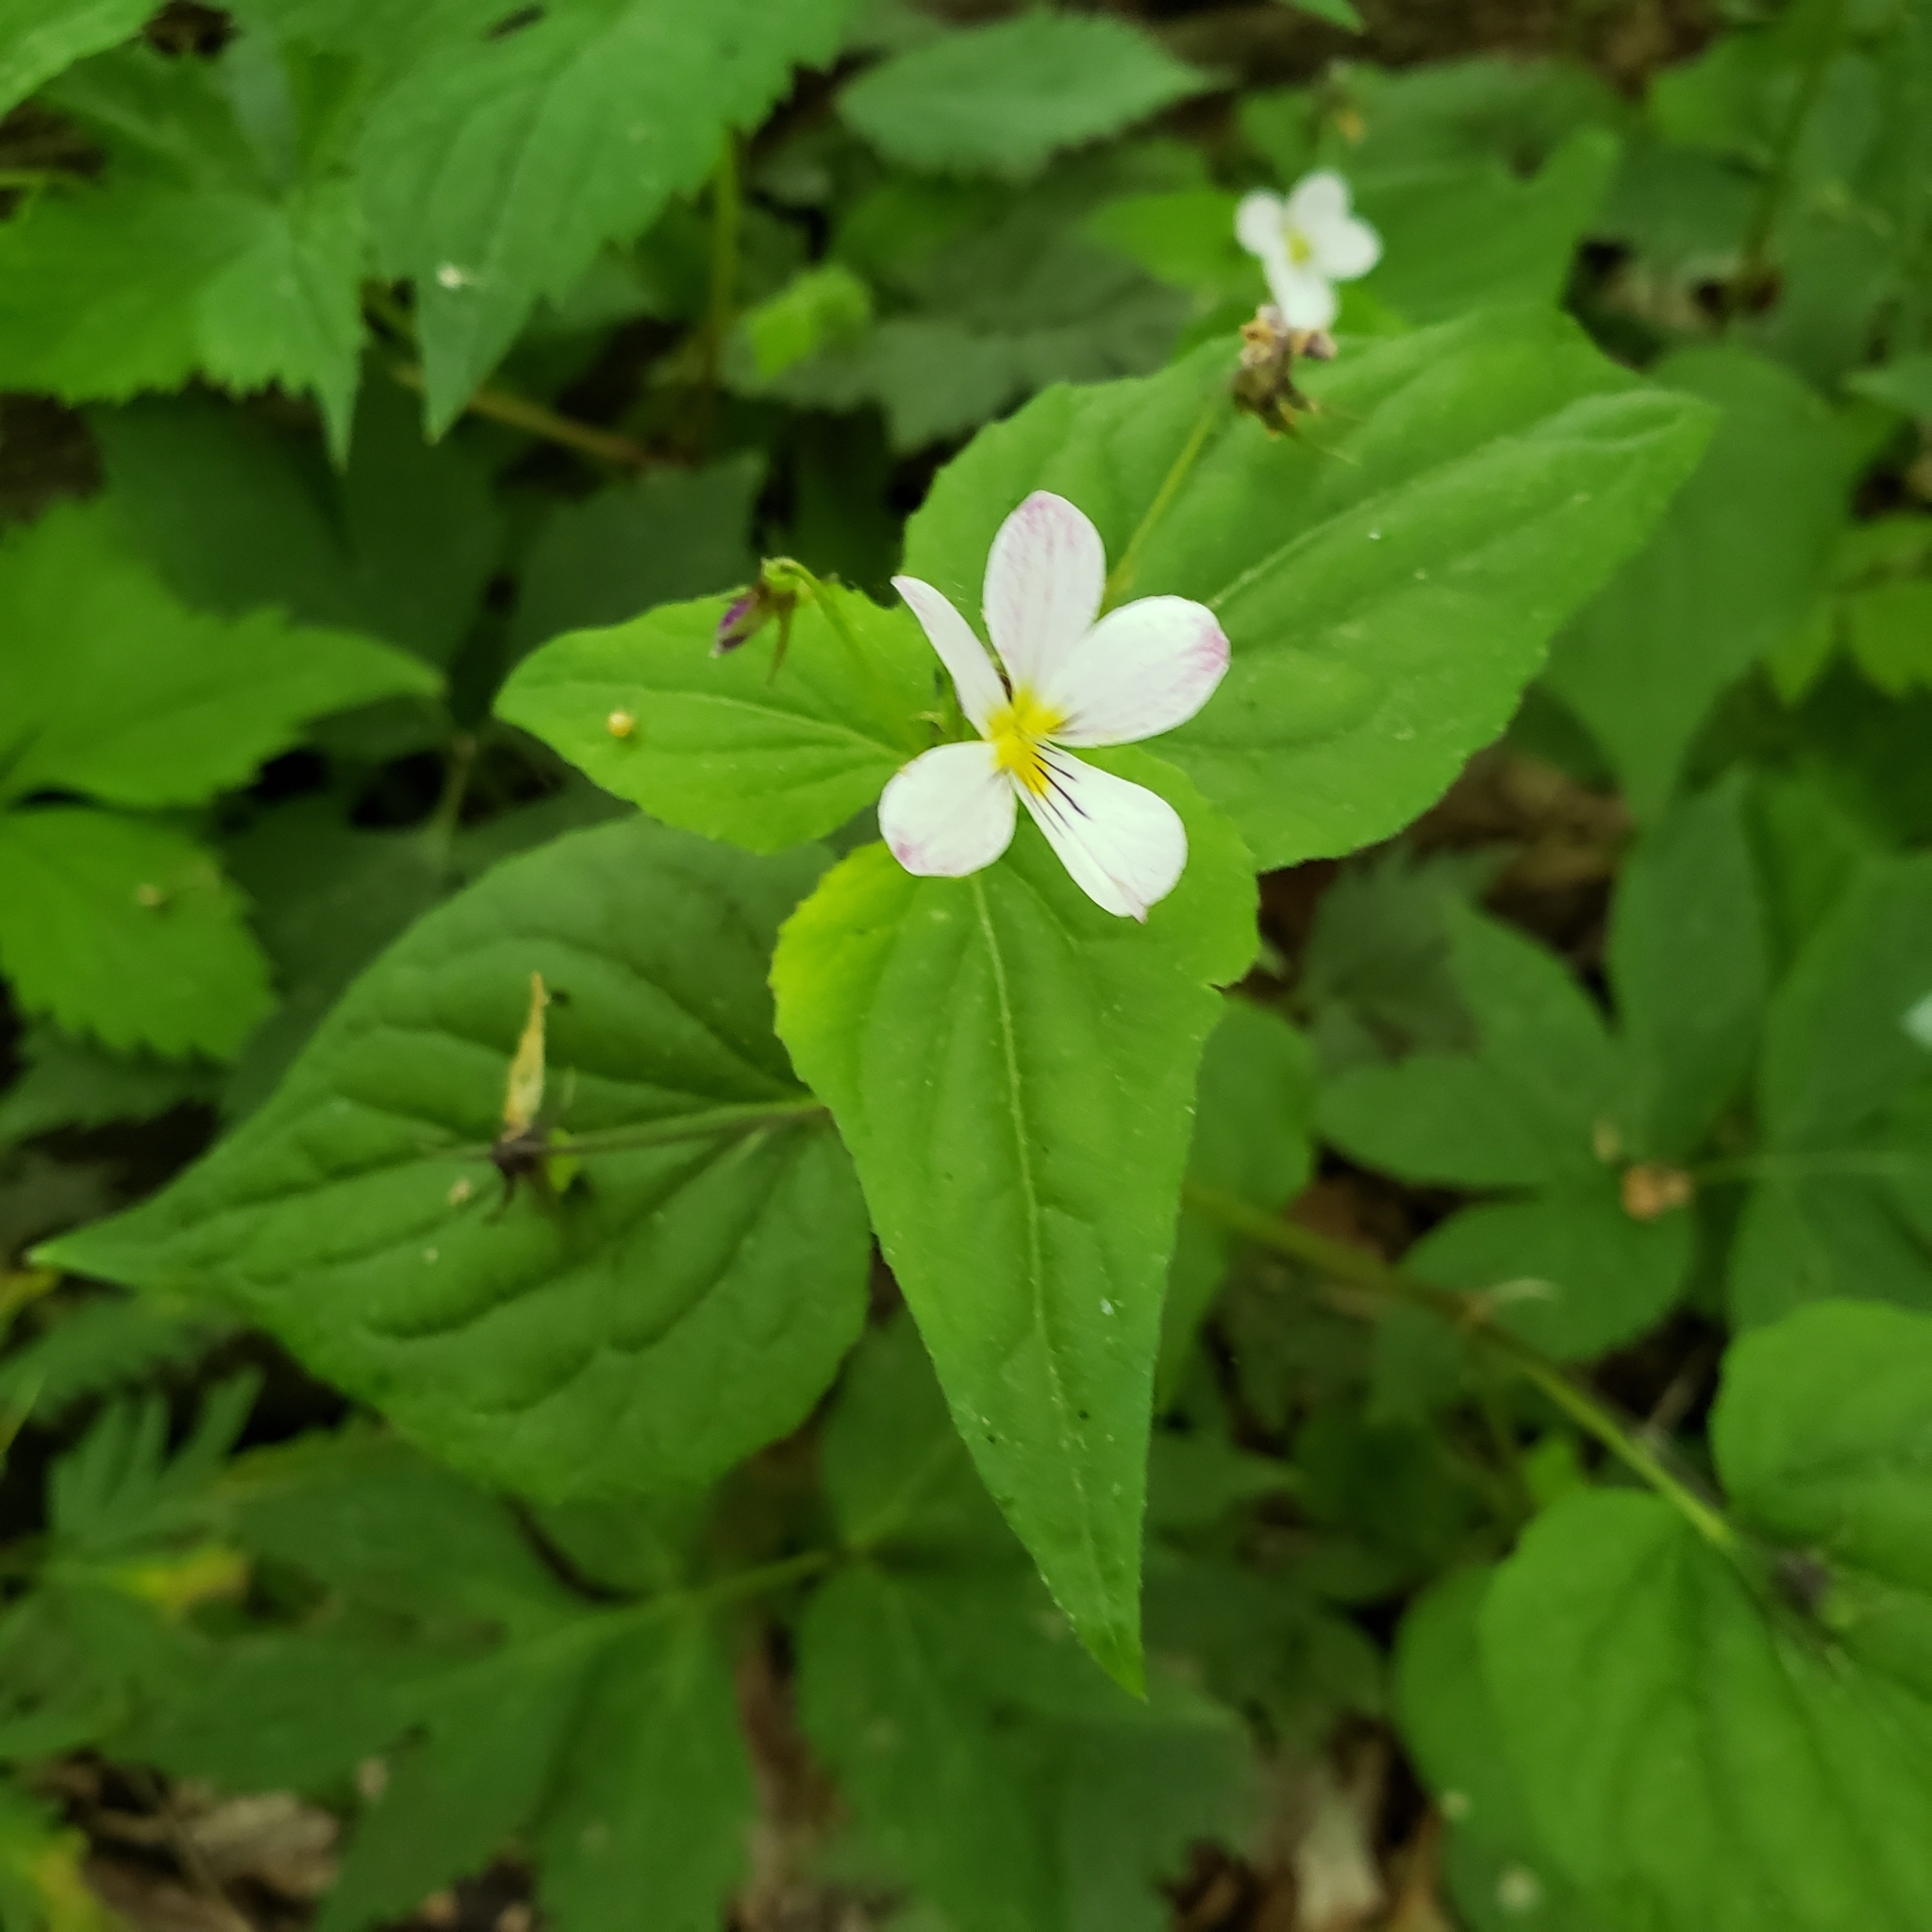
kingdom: Plantae
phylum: Tracheophyta
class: Magnoliopsida
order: Malpighiales
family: Violaceae
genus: Viola
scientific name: Viola canadensis
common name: Canada violet
